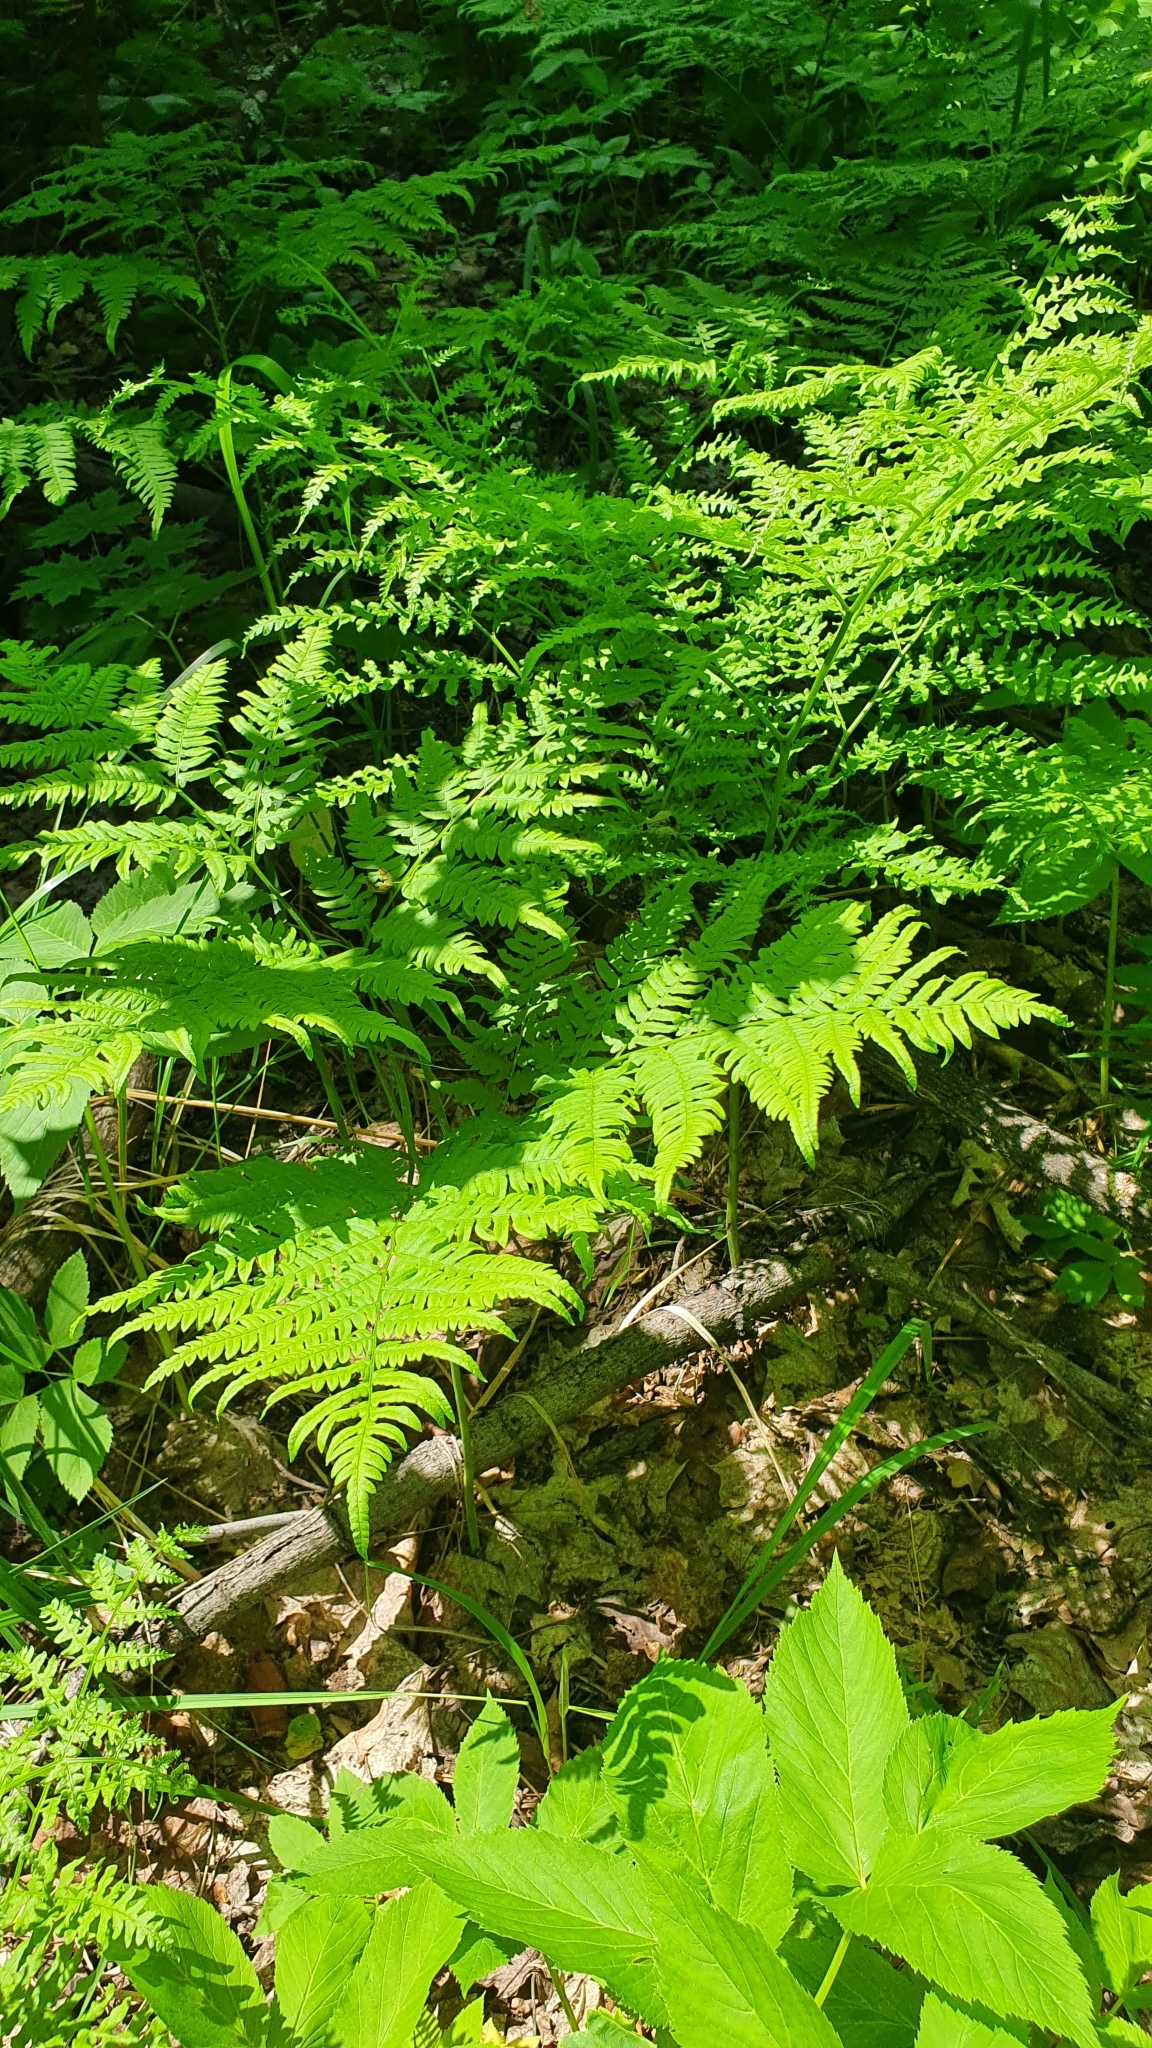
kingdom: Plantae
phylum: Tracheophyta
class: Polypodiopsida
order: Polypodiales
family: Dennstaedtiaceae
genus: Pteridium
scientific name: Pteridium aquilinum
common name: Bracken
